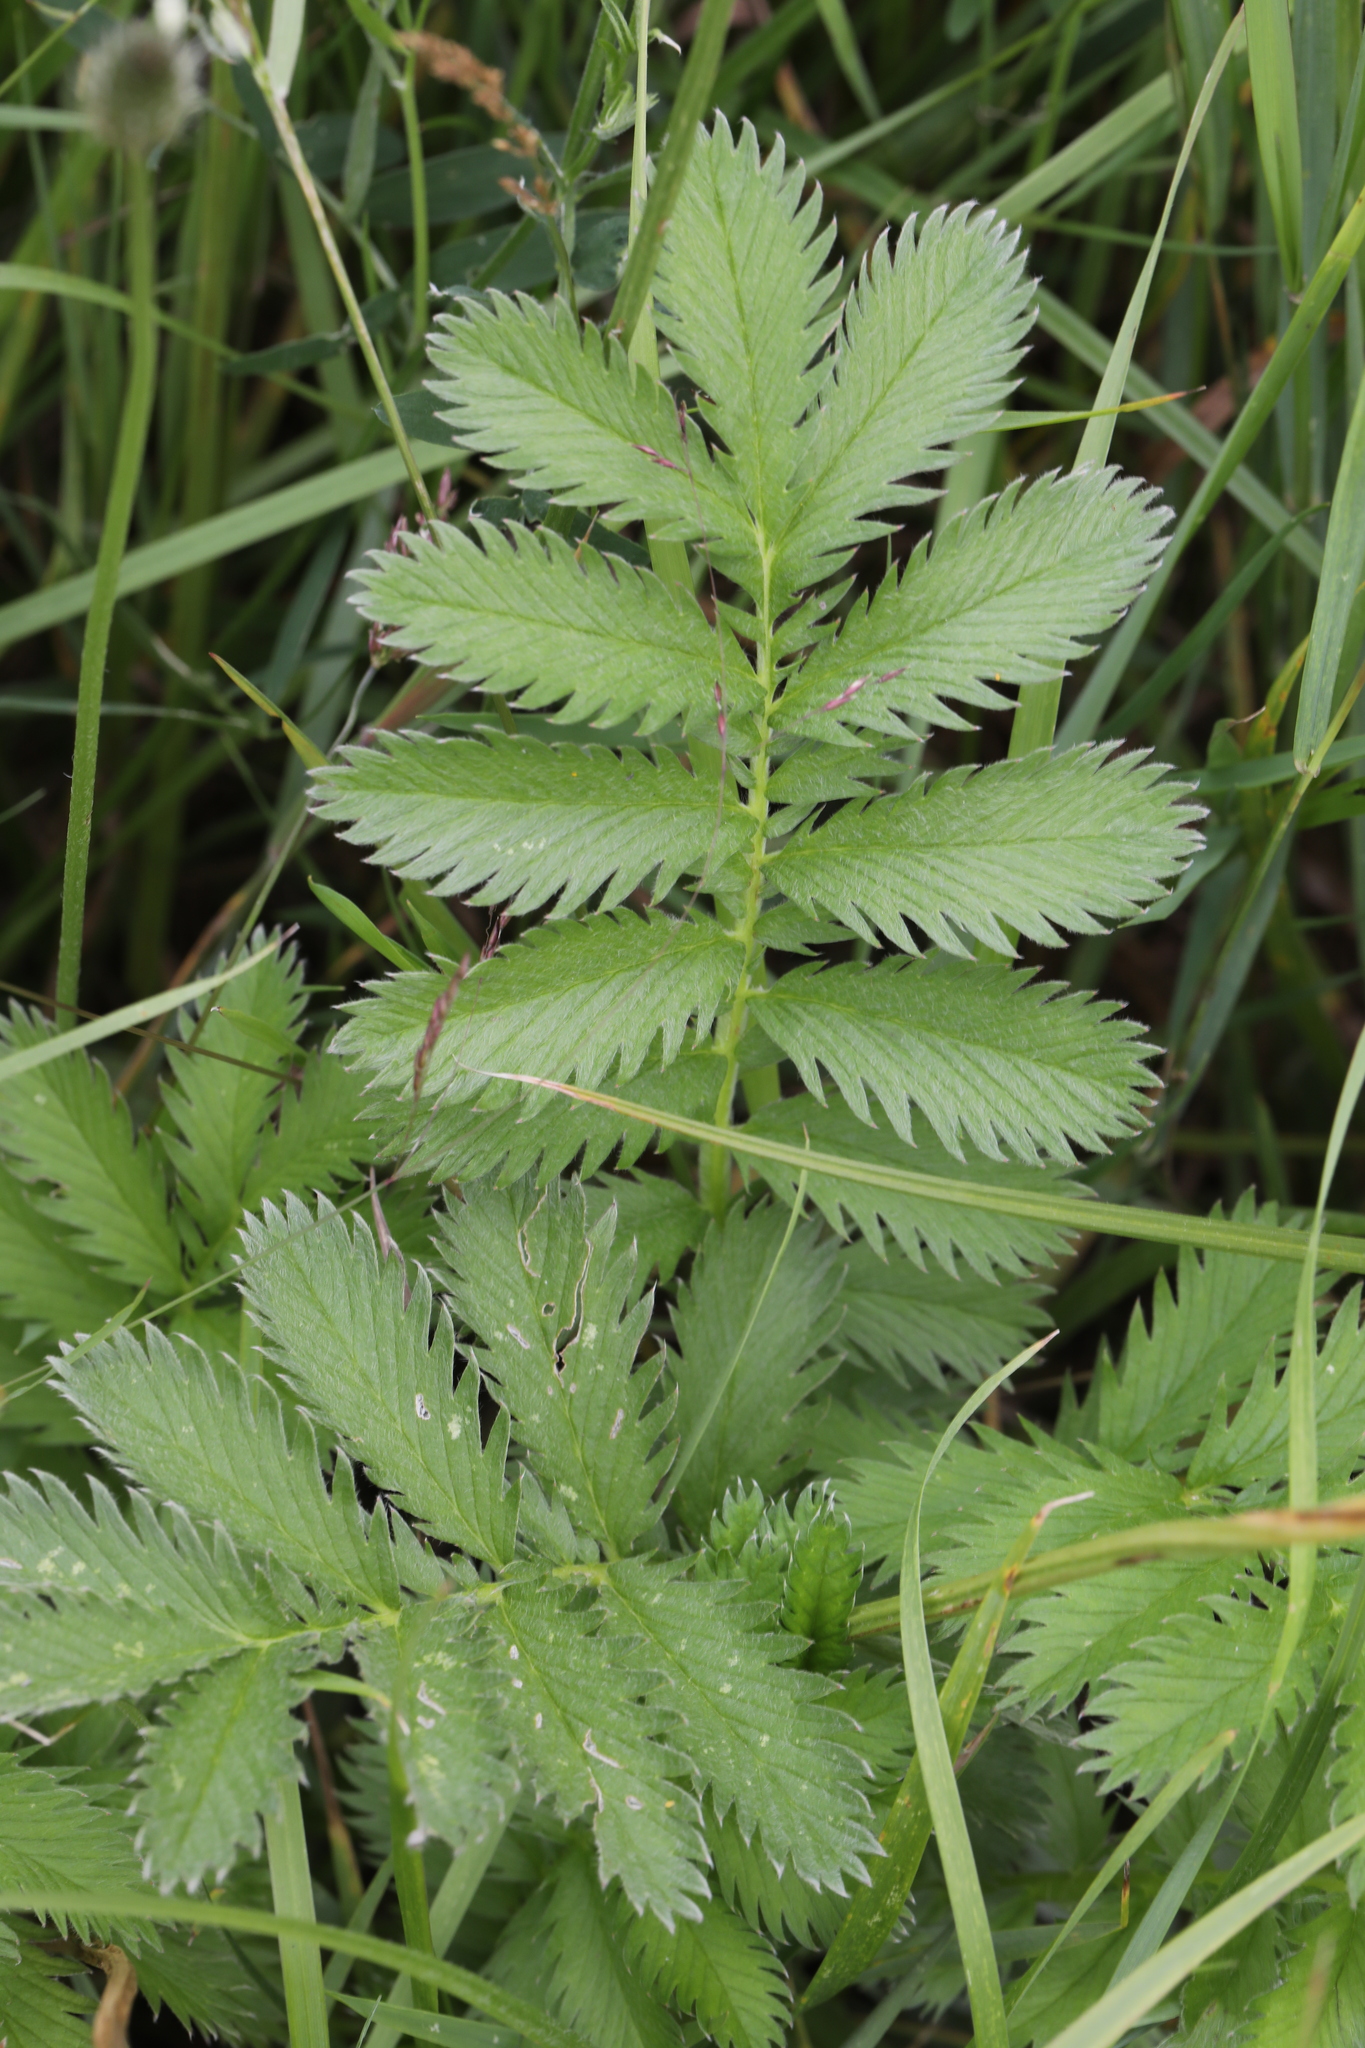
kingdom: Plantae
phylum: Tracheophyta
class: Magnoliopsida
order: Rosales
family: Rosaceae
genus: Argentina
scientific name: Argentina anserina
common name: Common silverweed
